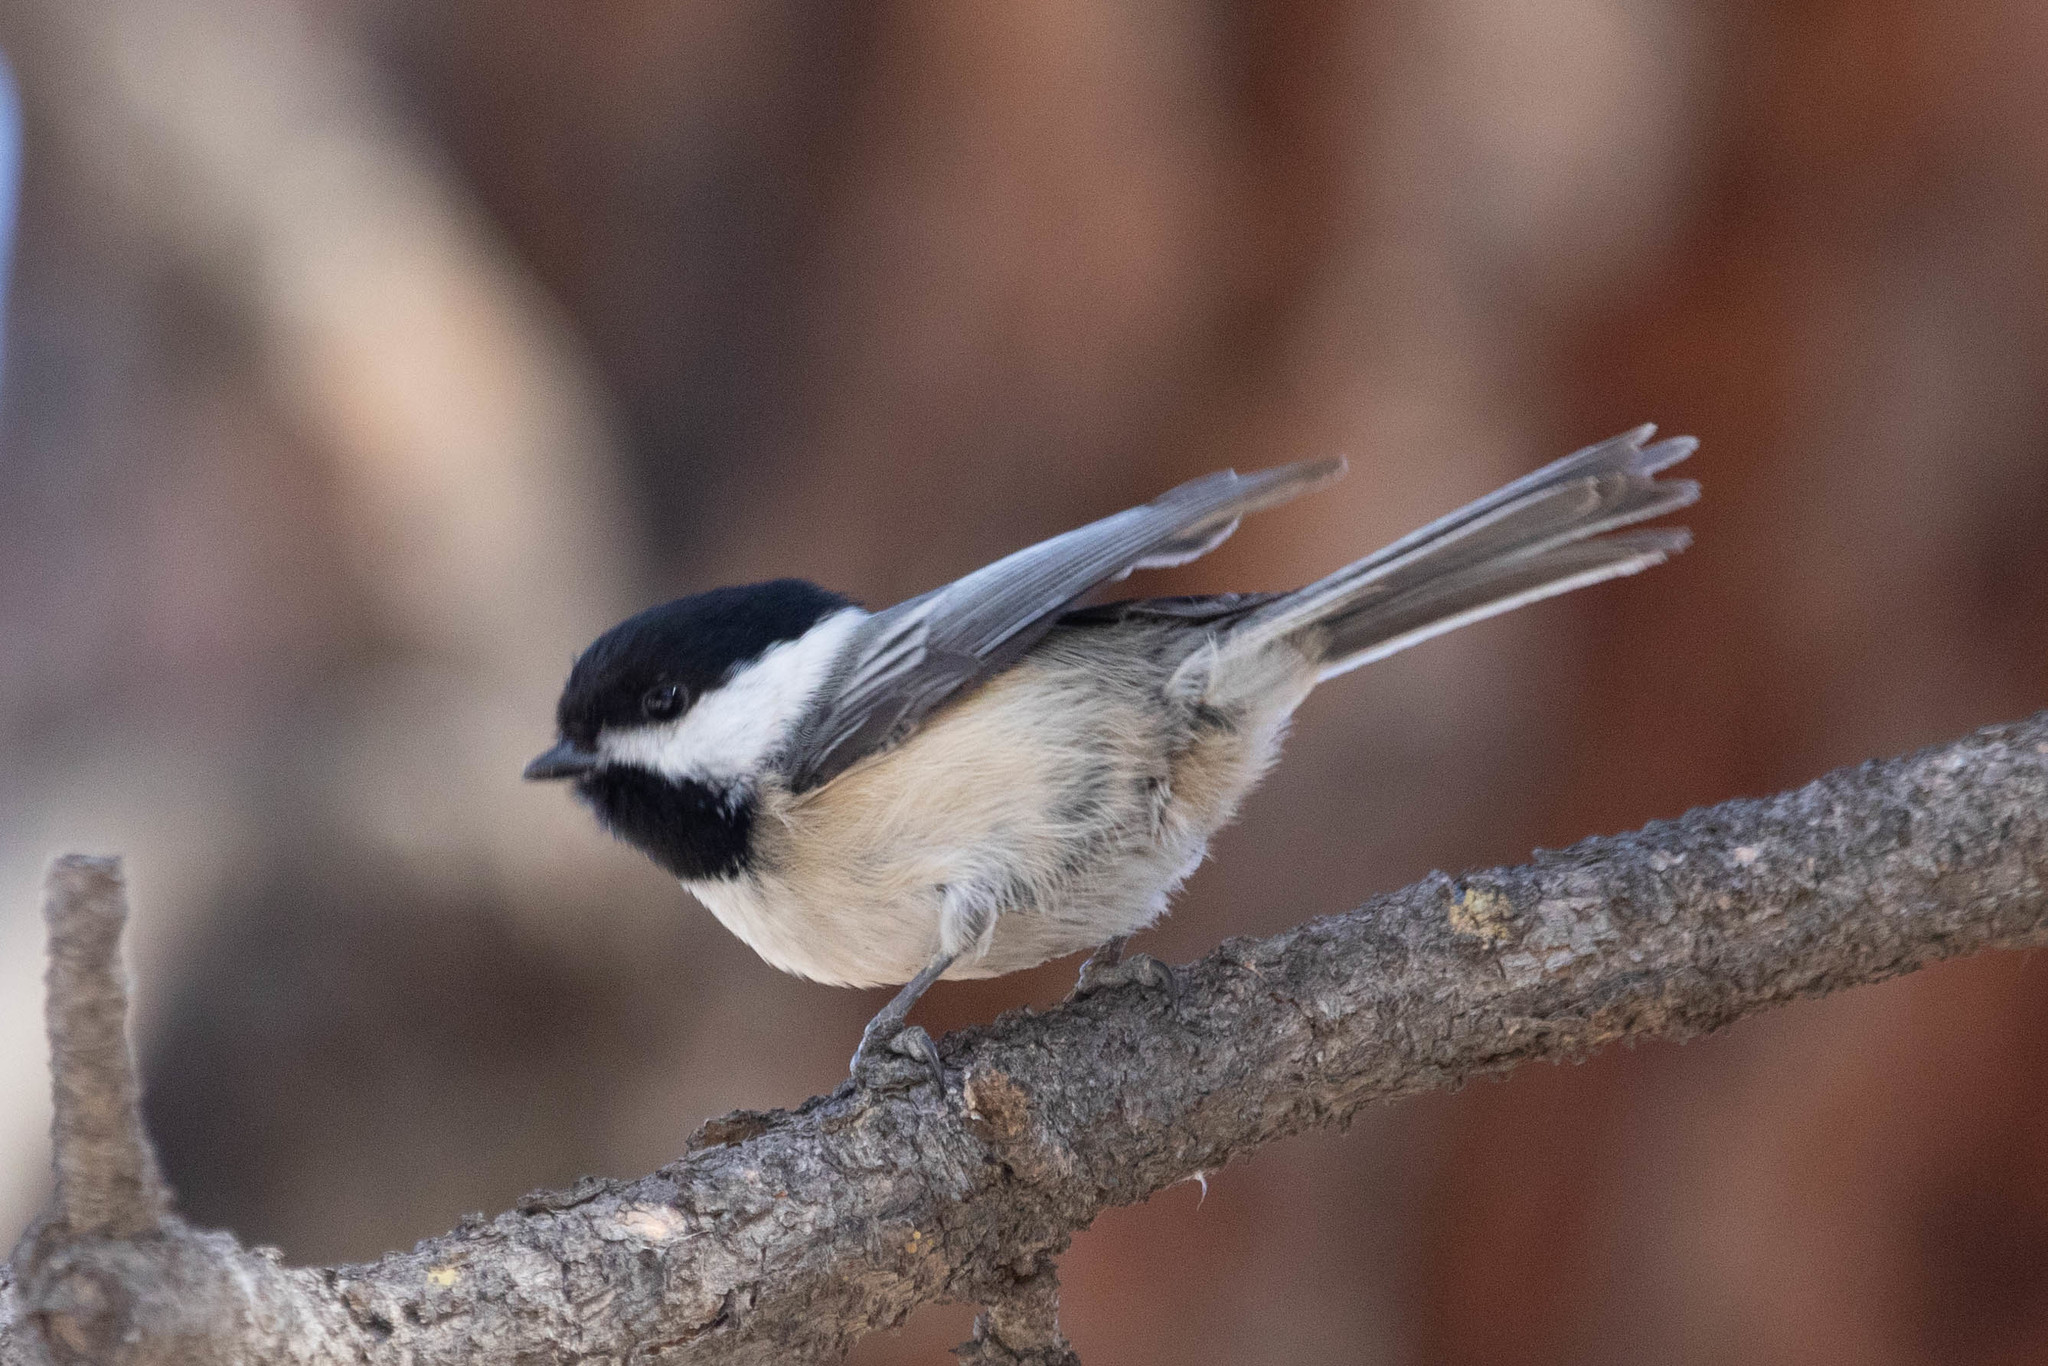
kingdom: Animalia
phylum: Chordata
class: Aves
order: Passeriformes
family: Paridae
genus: Poecile
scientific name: Poecile atricapillus
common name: Black-capped chickadee
